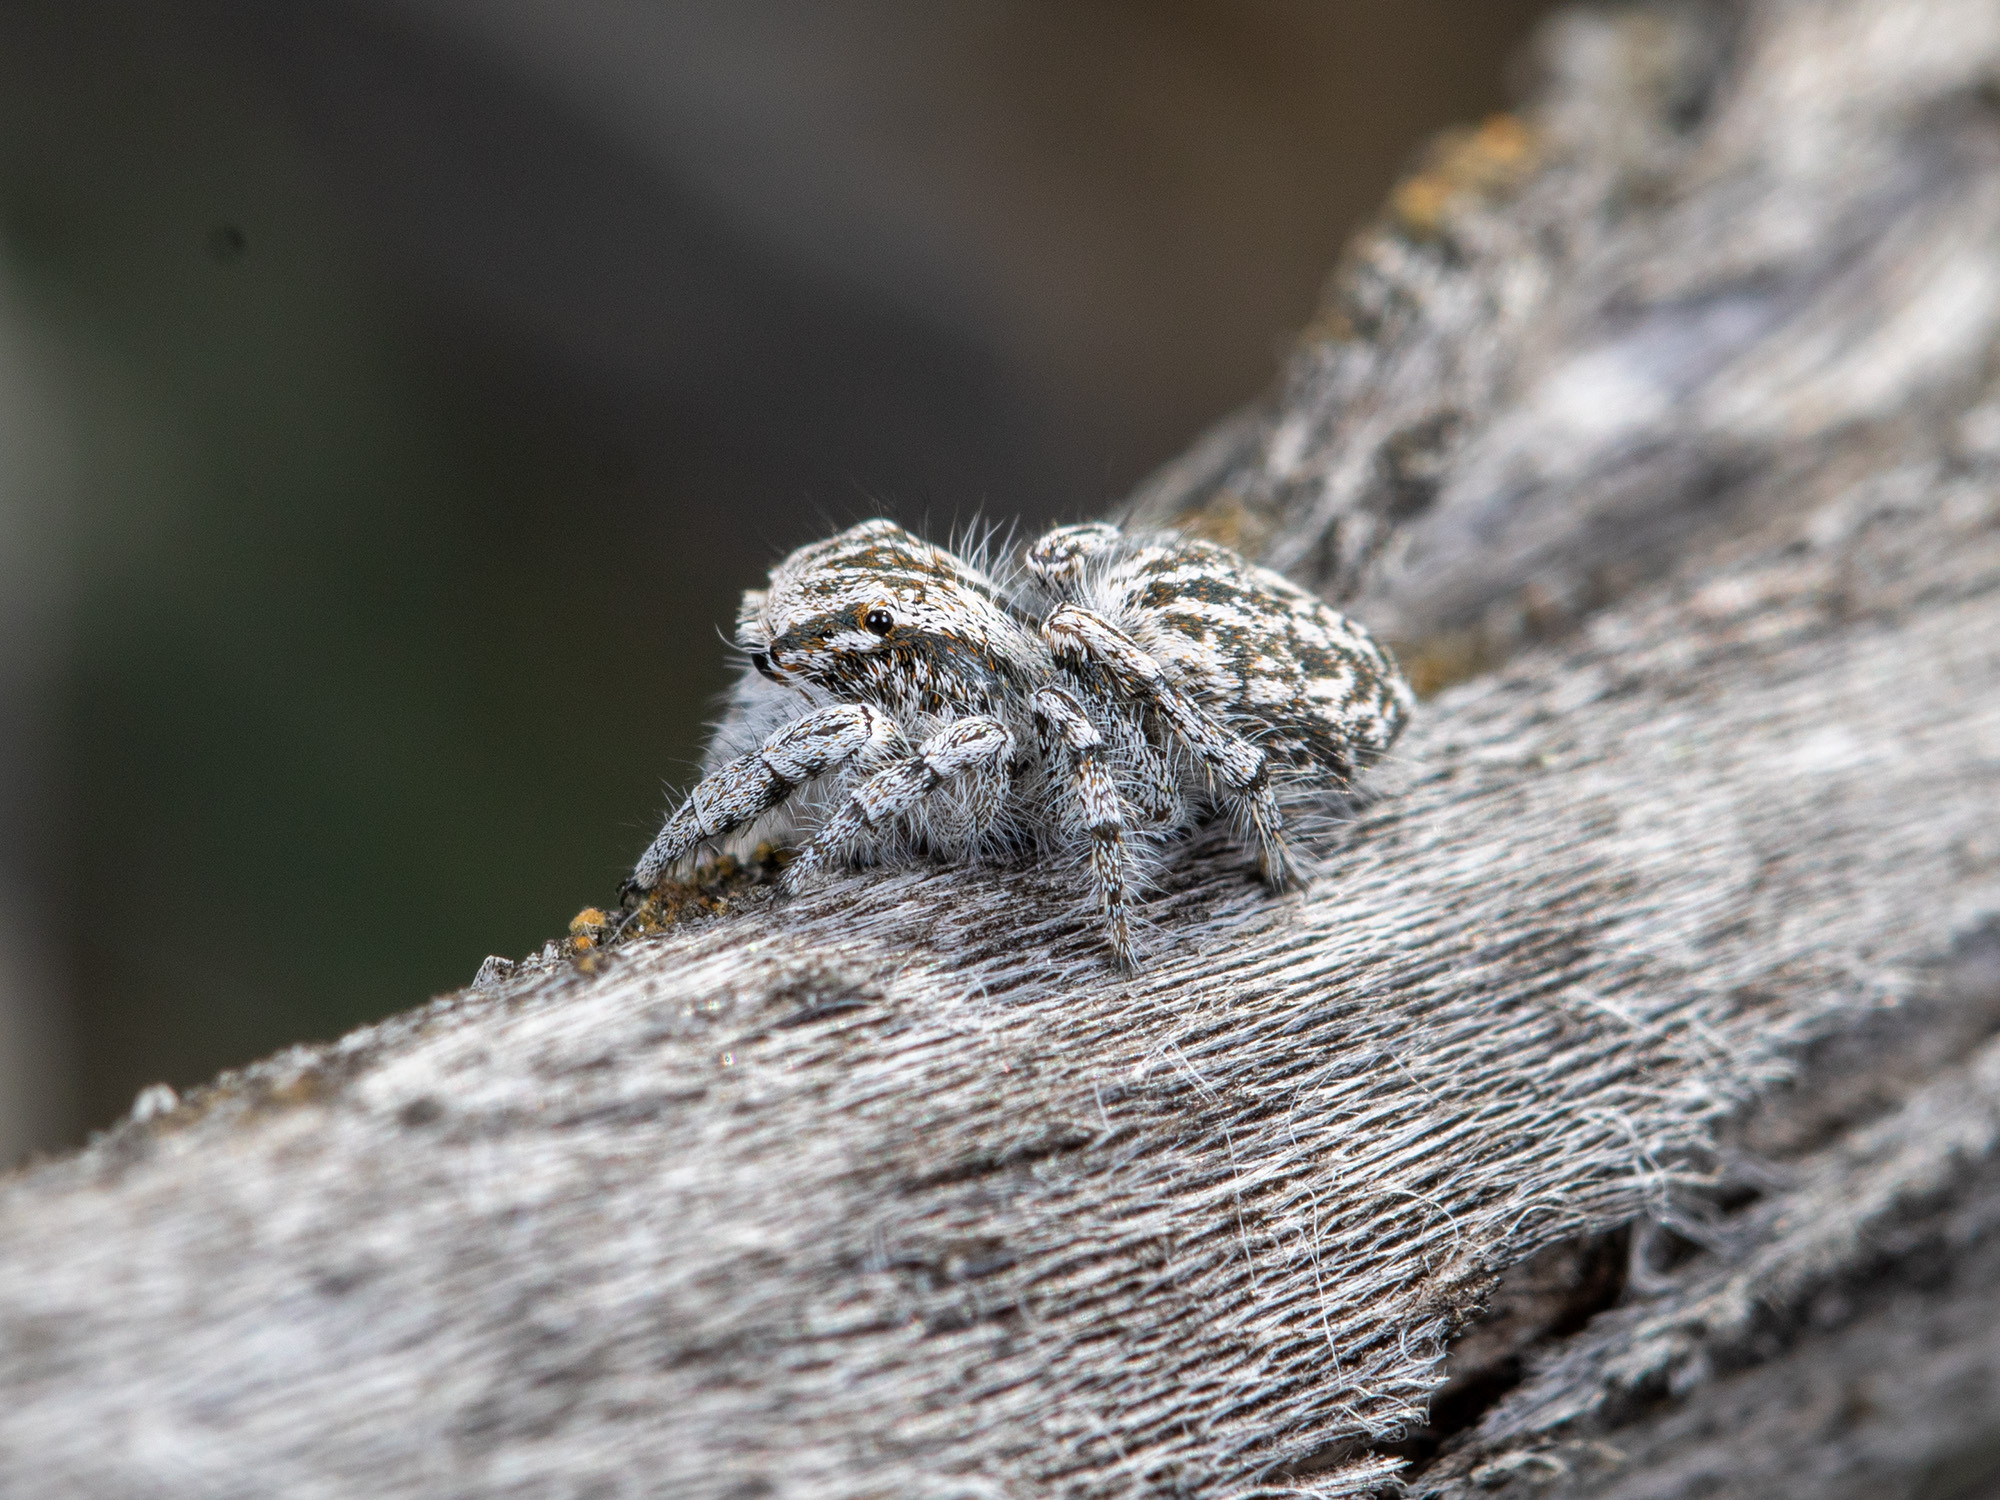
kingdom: Animalia
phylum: Arthropoda
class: Arachnida
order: Araneae
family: Salticidae
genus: Marusyllus
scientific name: Marusyllus aralicus
